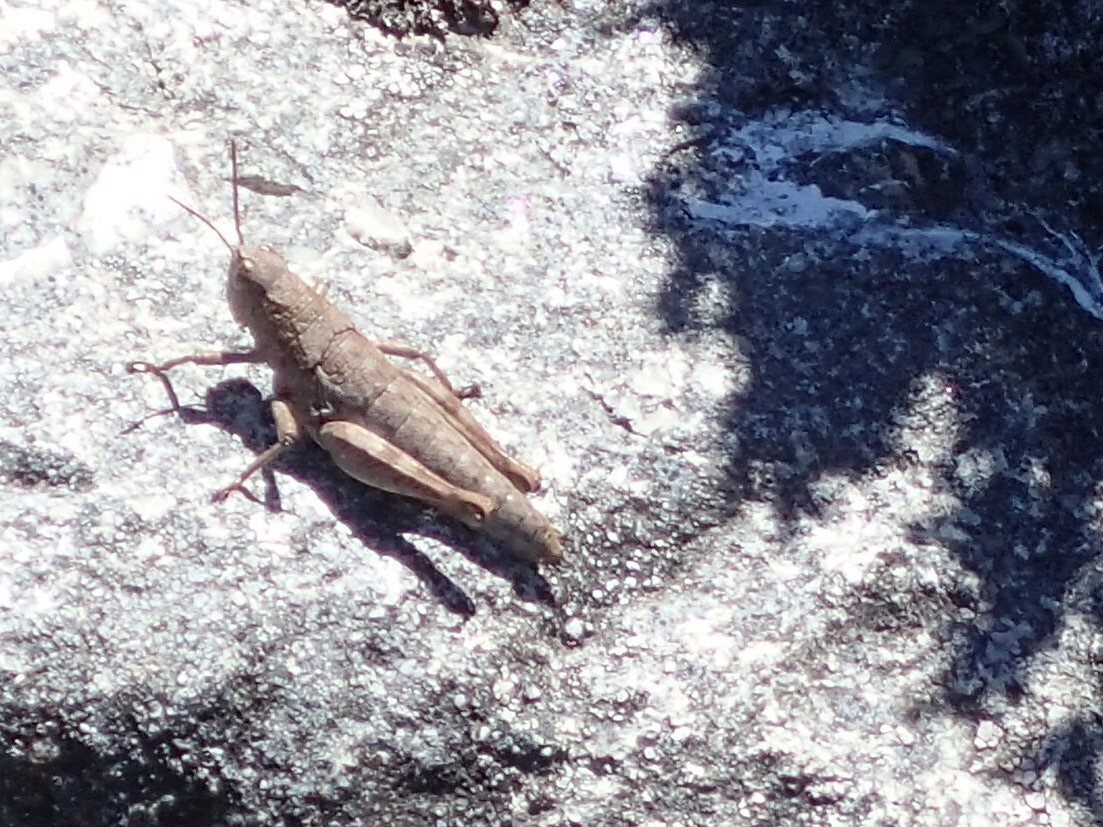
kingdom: Animalia
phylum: Arthropoda
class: Insecta
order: Orthoptera
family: Acrididae
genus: Tasmaniacris
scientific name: Tasmaniacris tasmaniensis
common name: Tasmanian grasshopper
